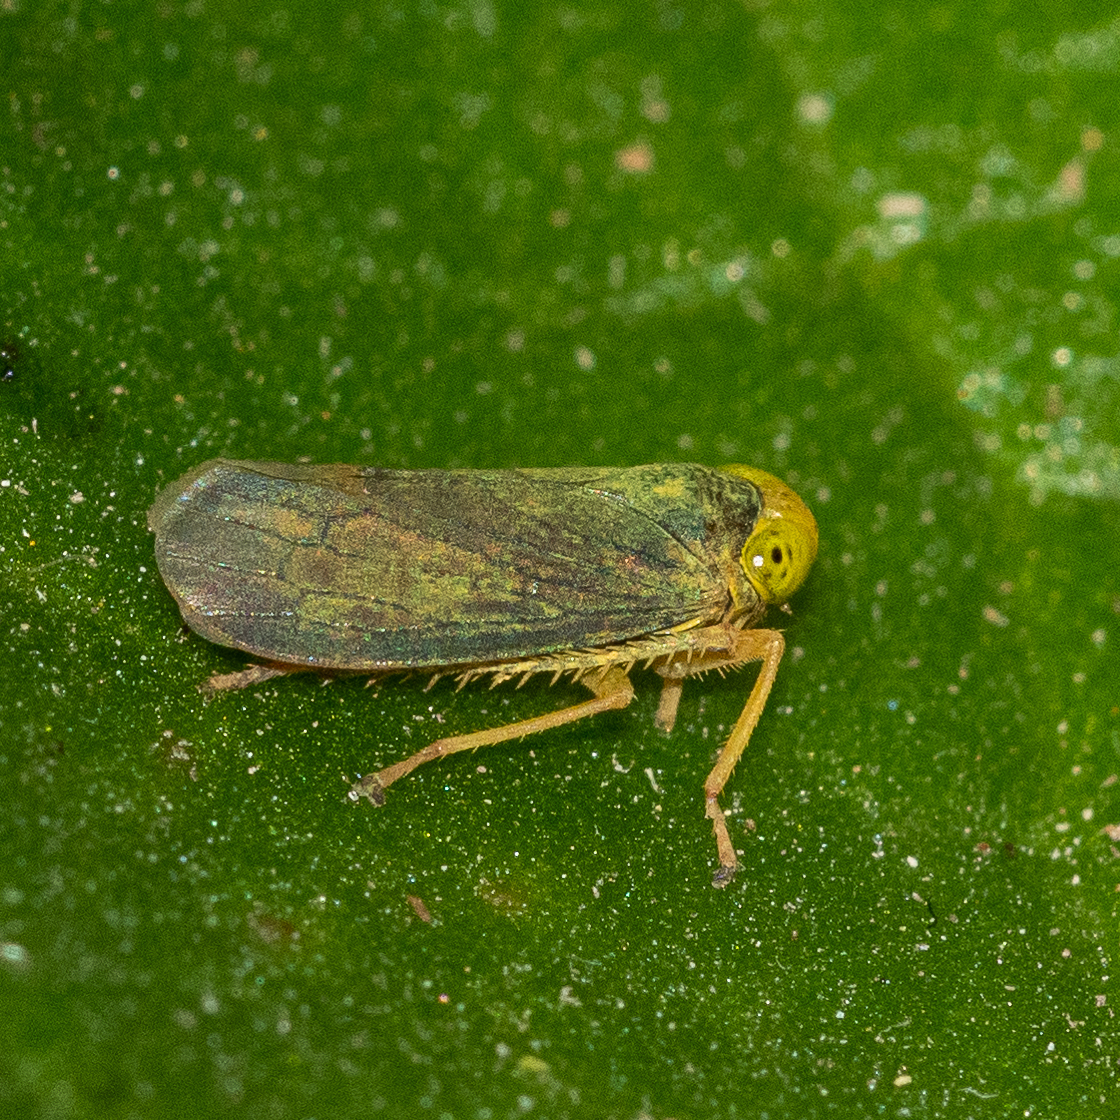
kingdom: Animalia
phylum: Arthropoda
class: Insecta
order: Hemiptera
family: Cicadellidae
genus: Jikradia
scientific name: Jikradia olitoria
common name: Coppery leafhopper
